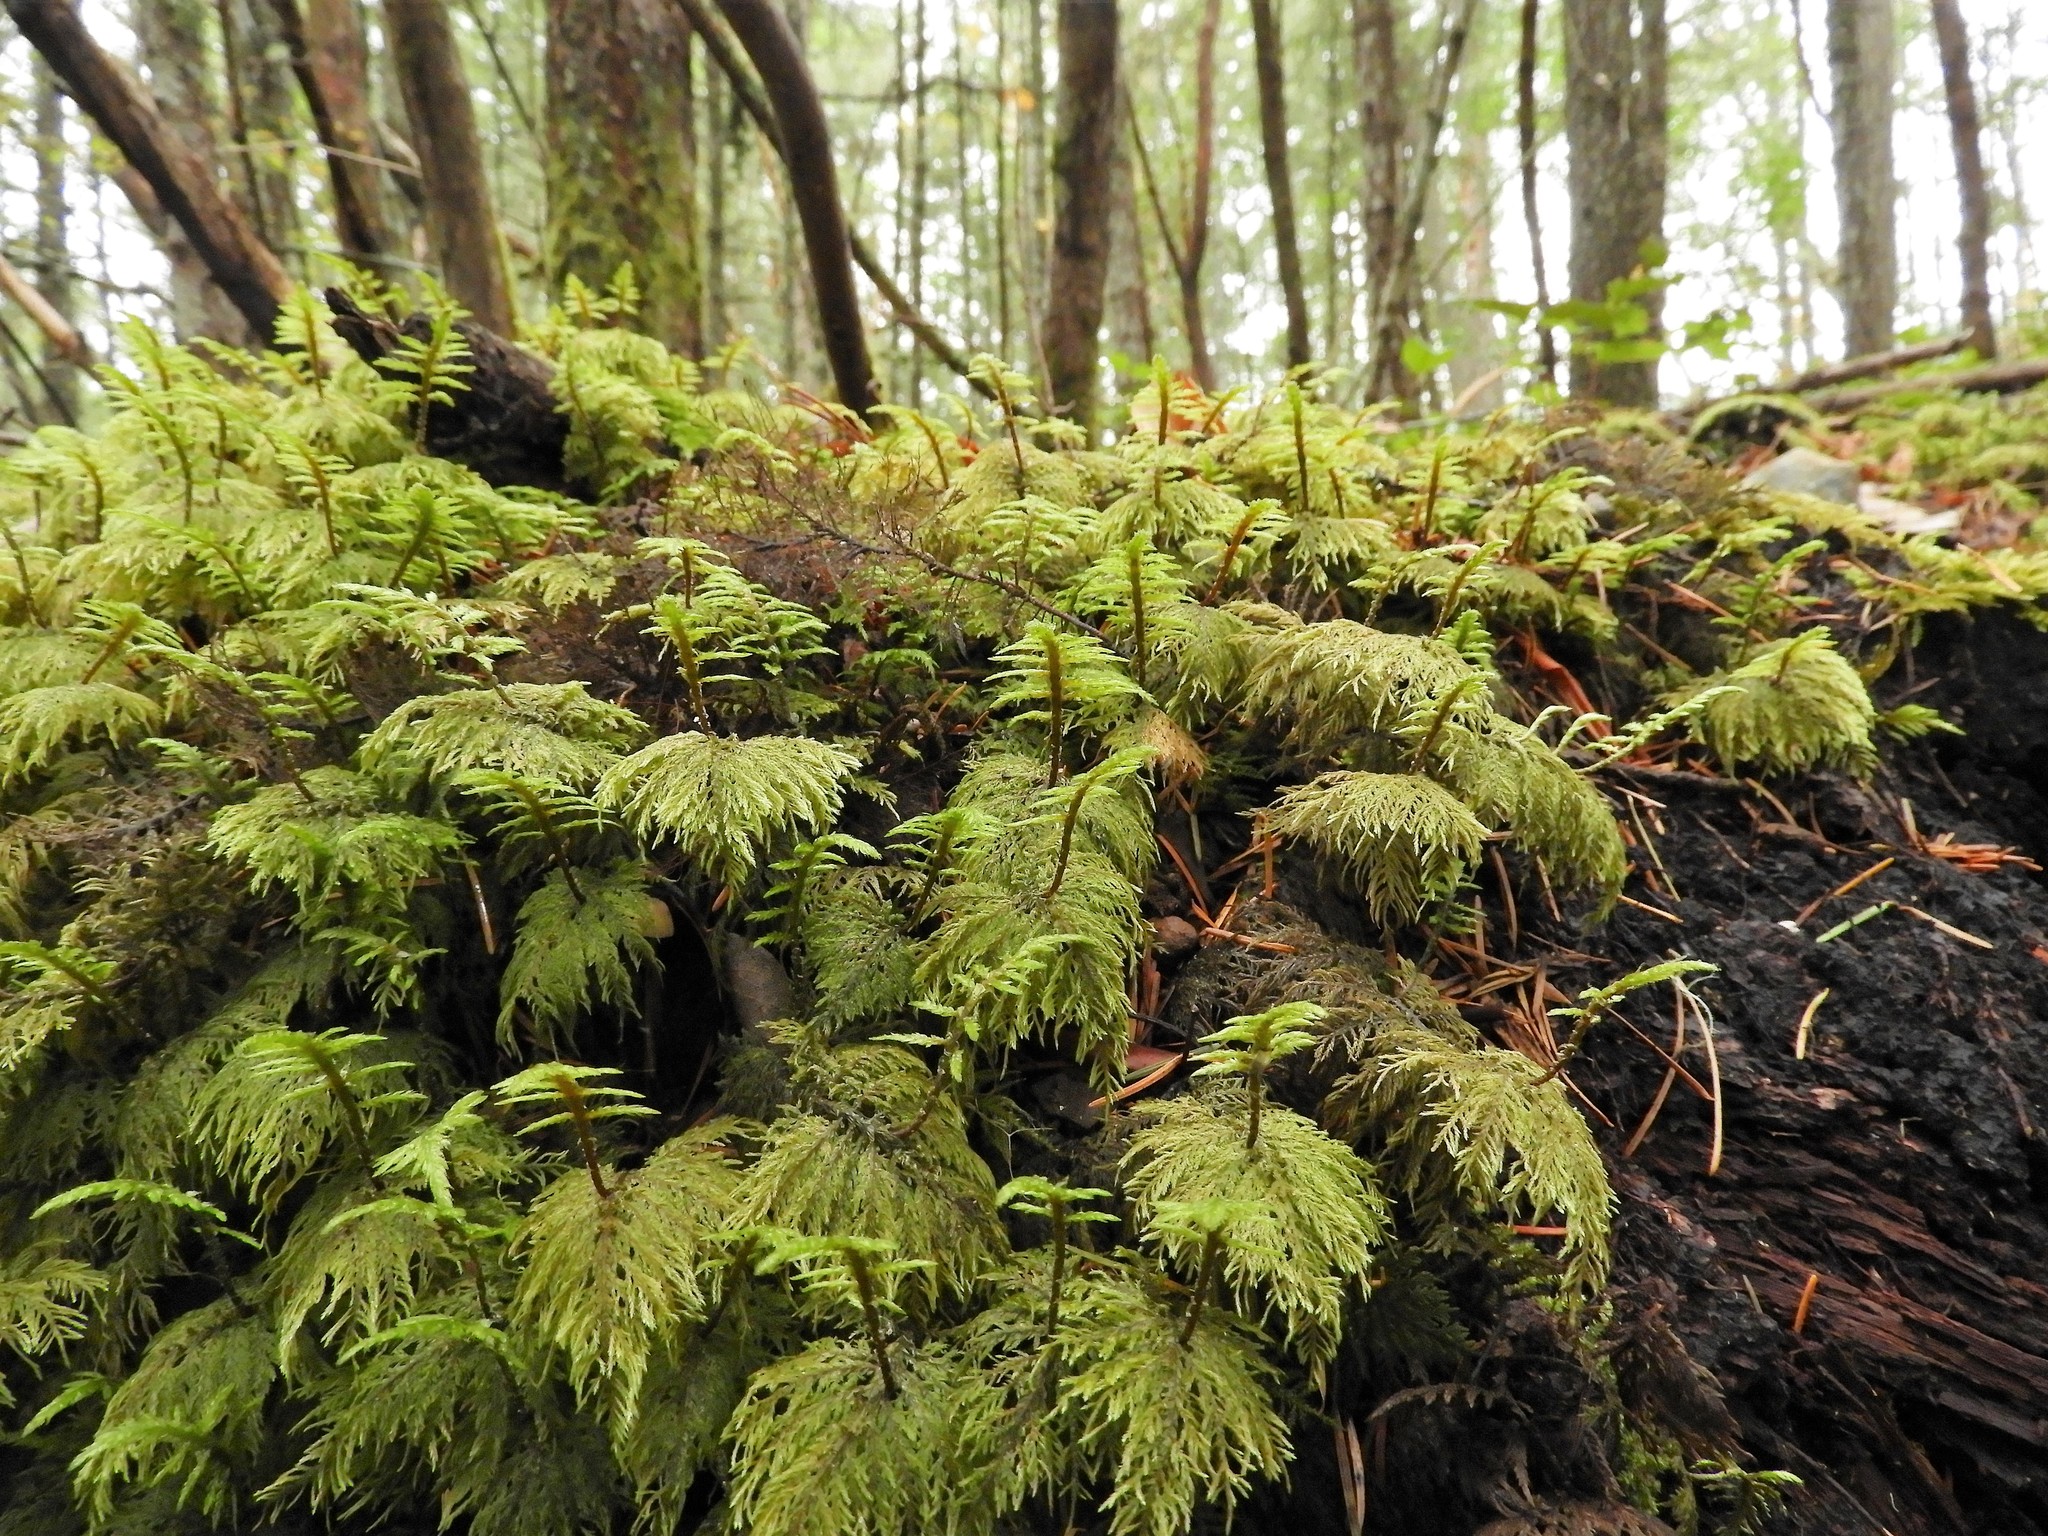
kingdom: Plantae
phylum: Bryophyta
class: Bryopsida
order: Hypnales
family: Hylocomiaceae
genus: Hylocomium
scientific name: Hylocomium splendens
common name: Stairstep moss
